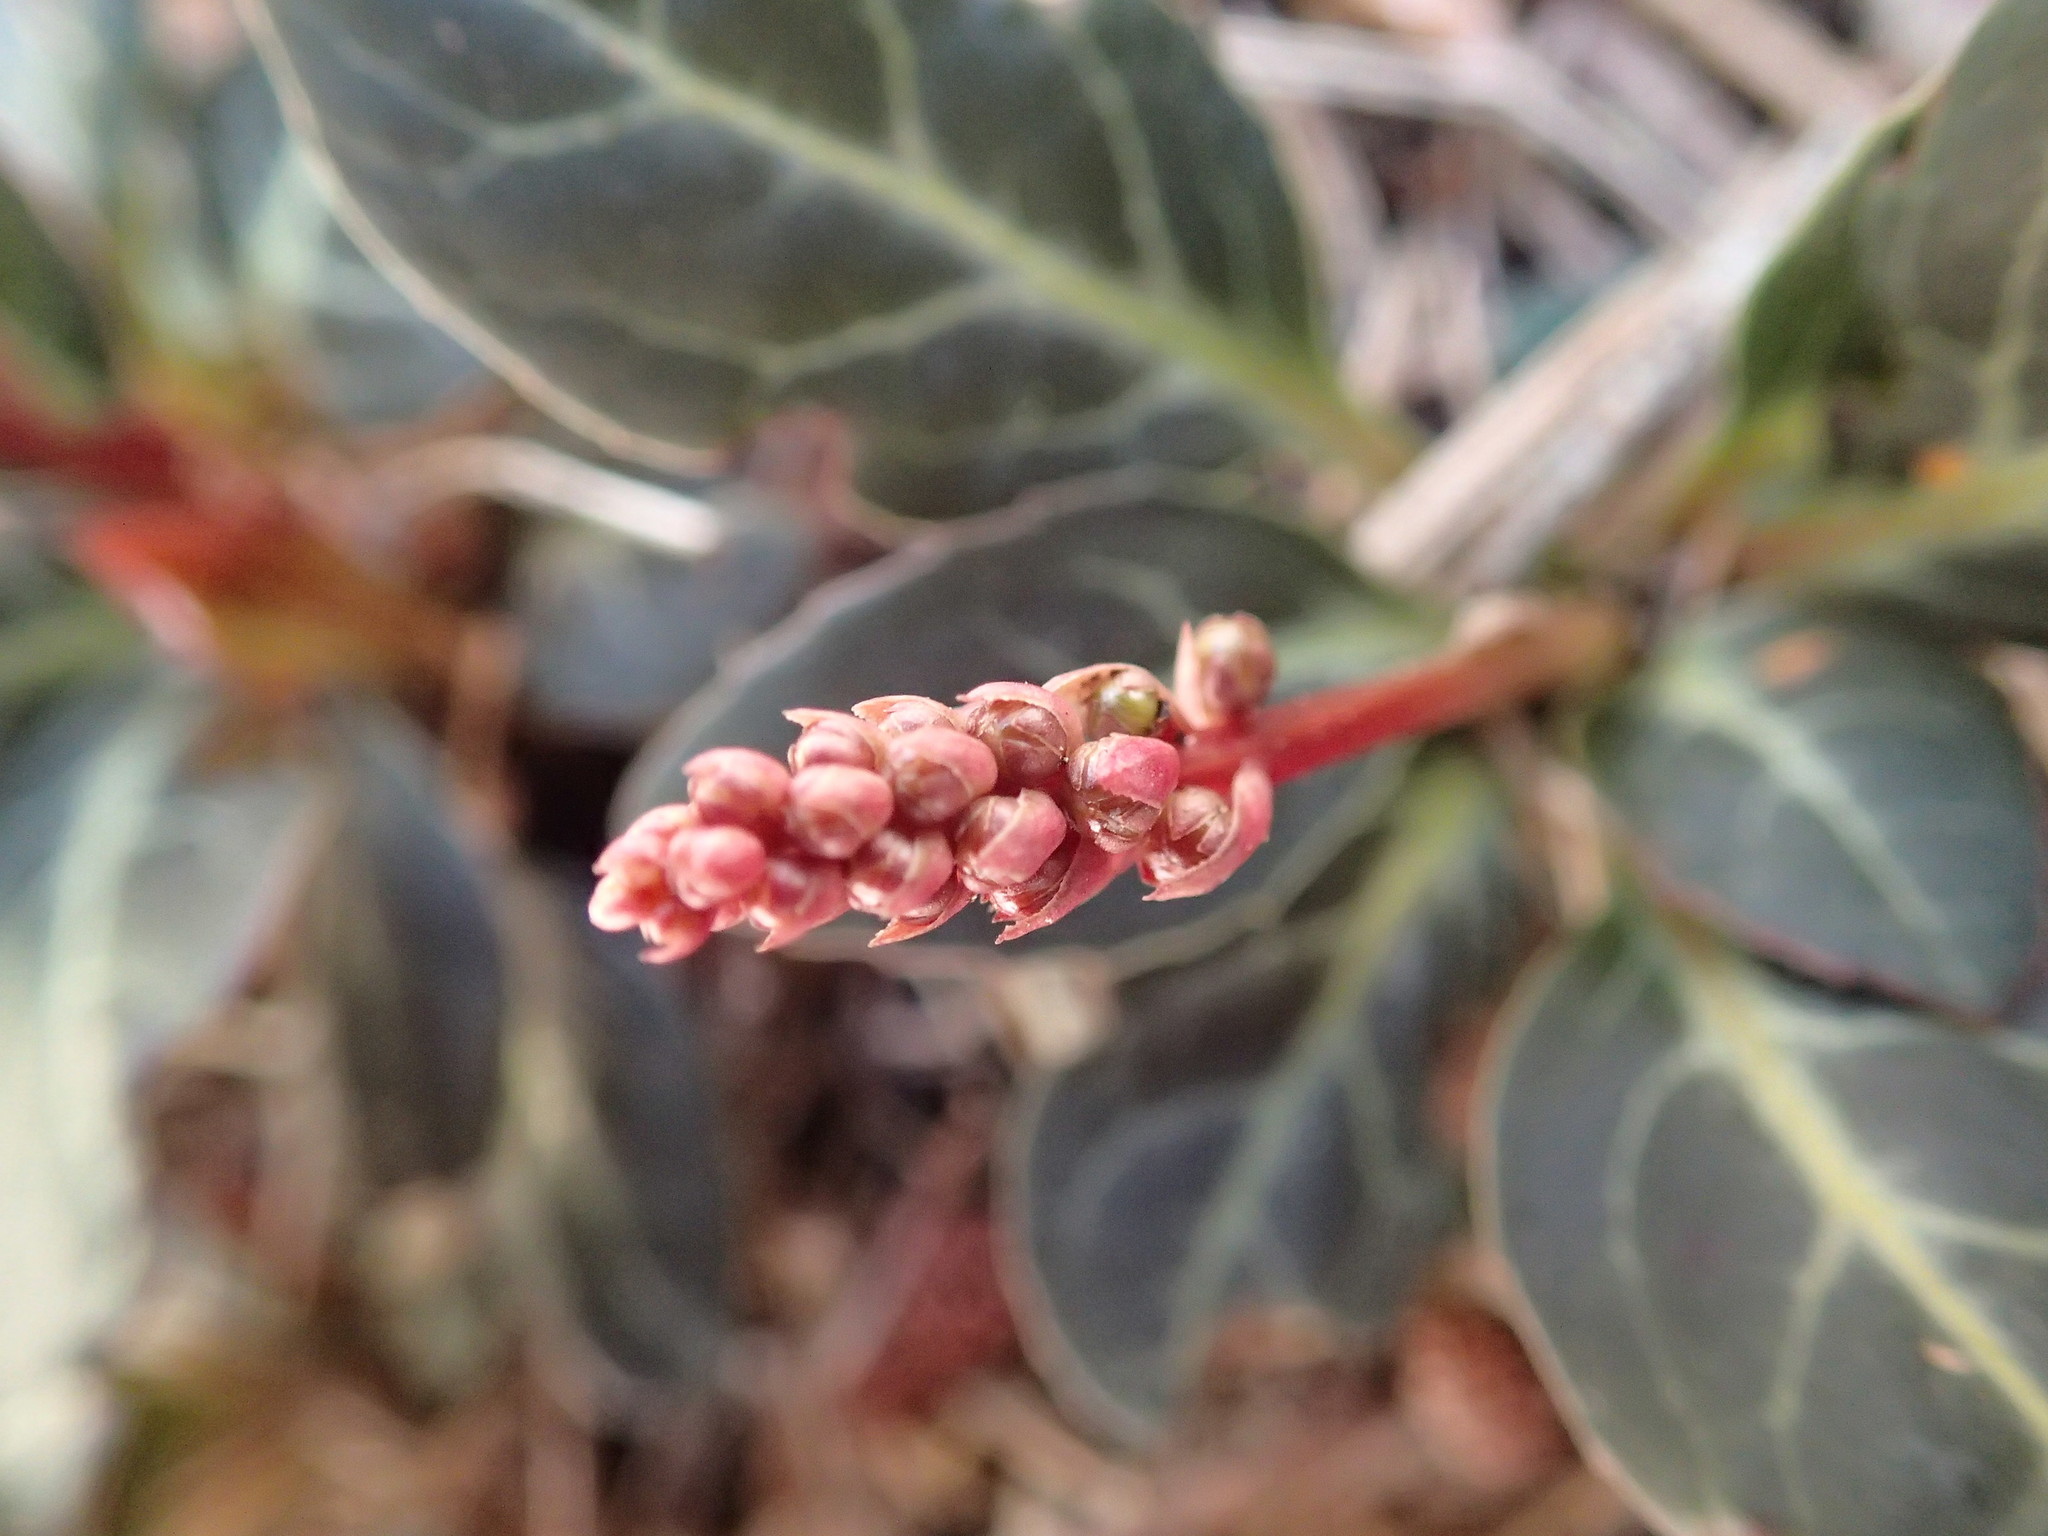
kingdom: Plantae
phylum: Tracheophyta
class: Magnoliopsida
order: Ericales
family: Ericaceae
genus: Pyrola
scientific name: Pyrola picta
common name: White-vein wintergreen
